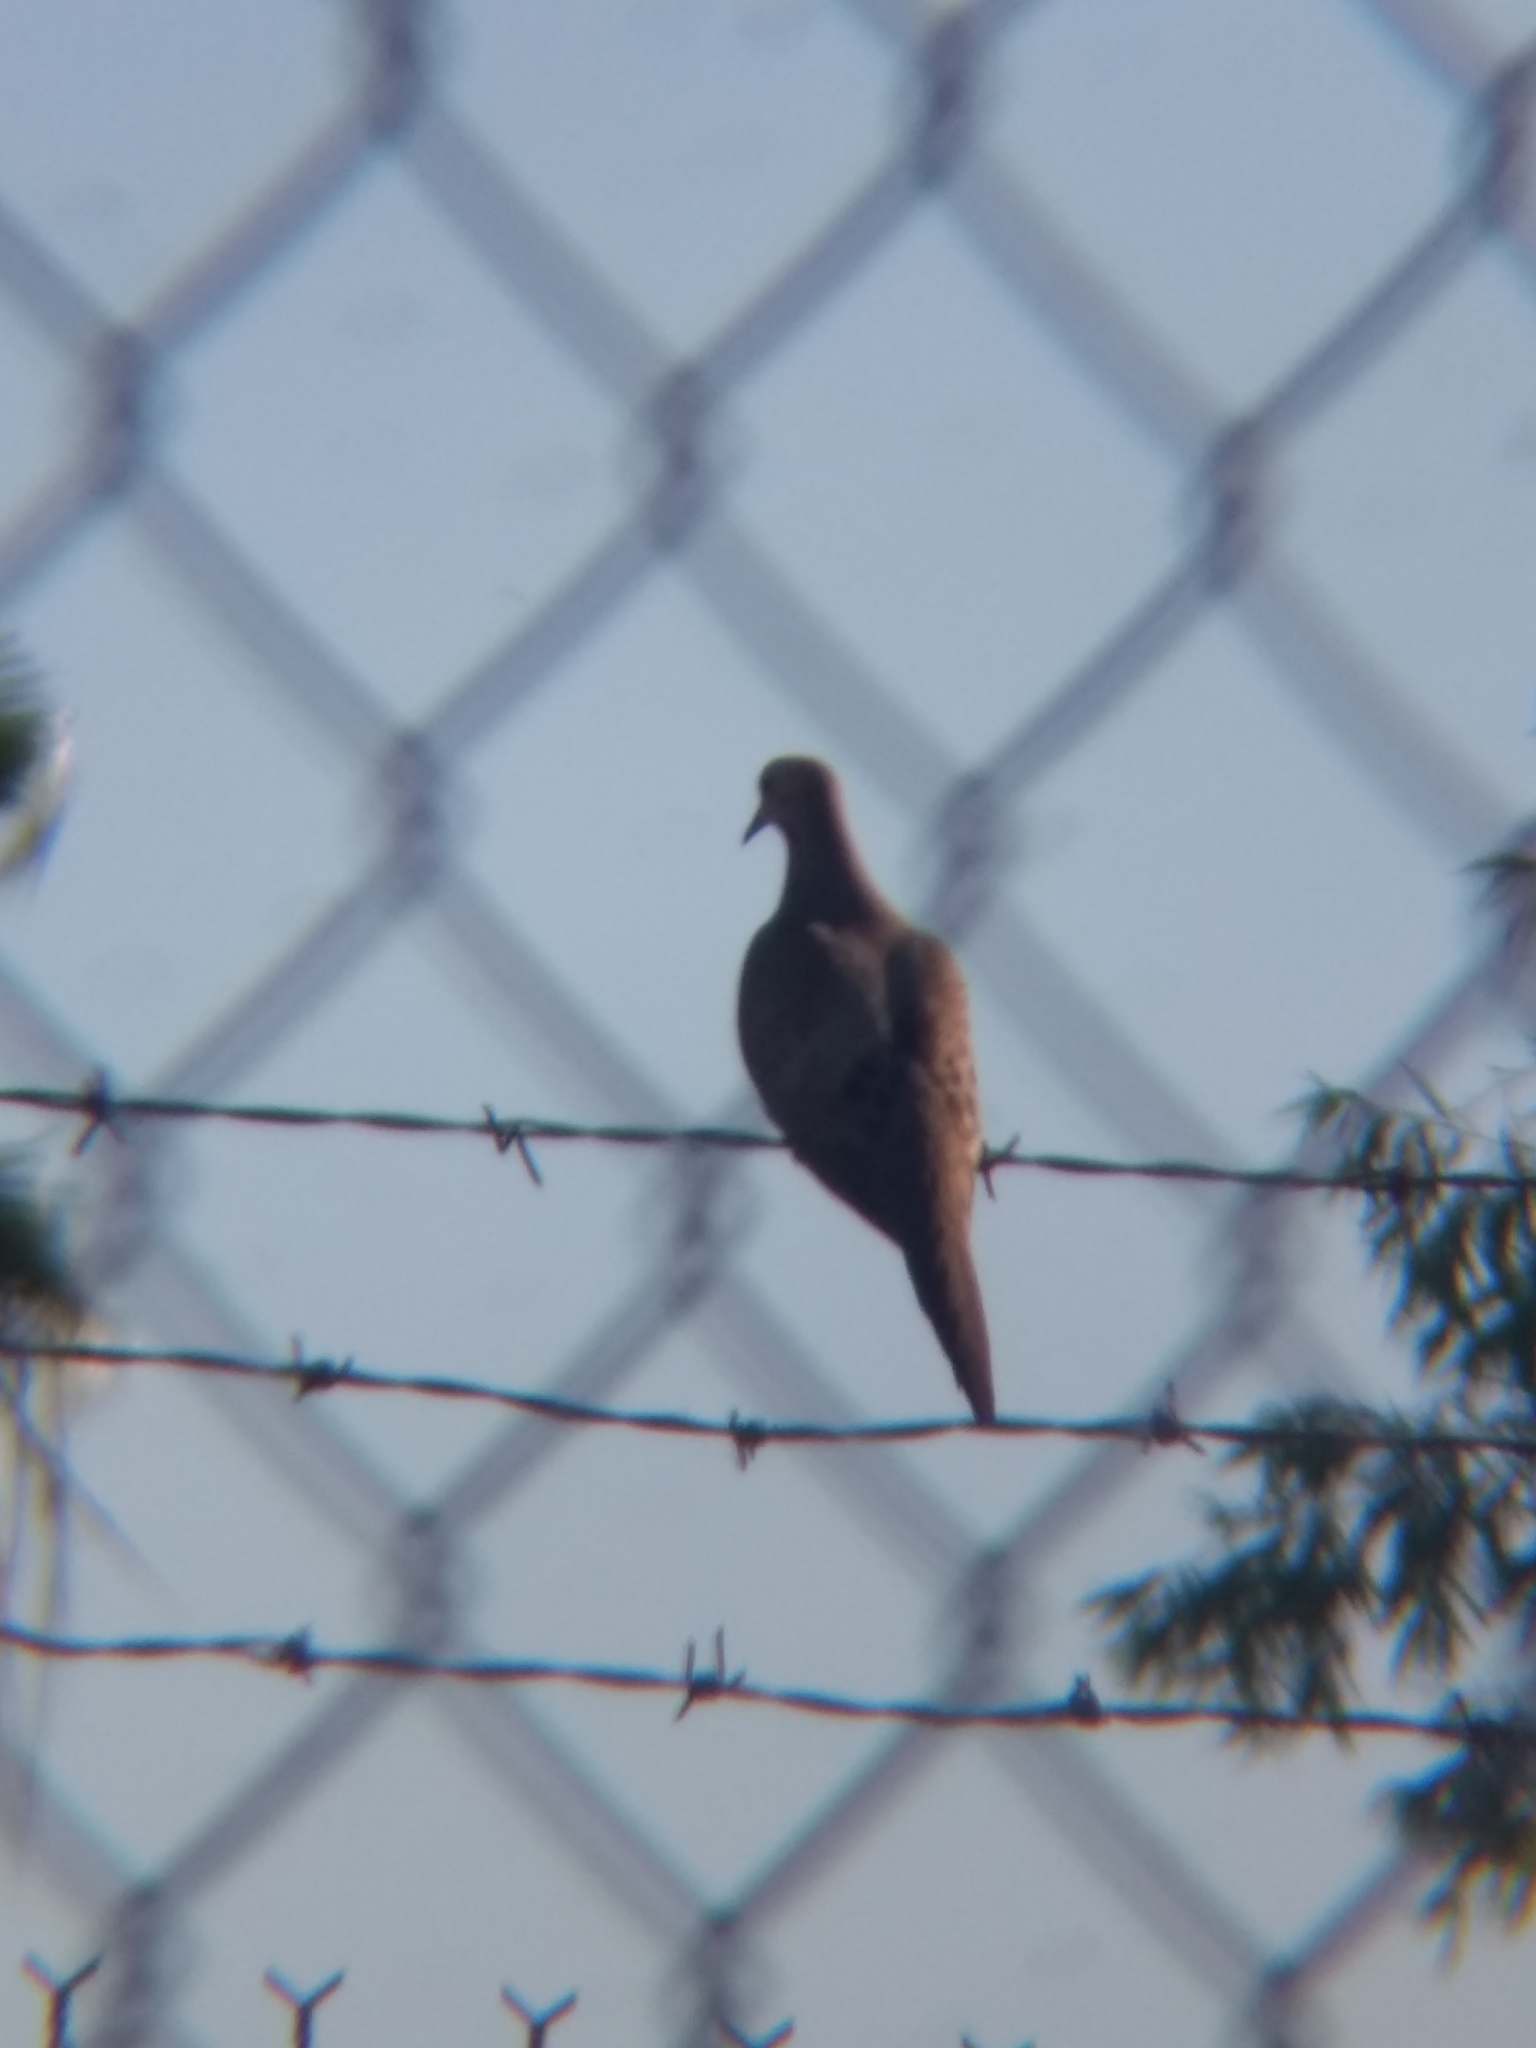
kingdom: Animalia
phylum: Chordata
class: Aves
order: Columbiformes
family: Columbidae
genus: Zenaida
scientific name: Zenaida macroura
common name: Mourning dove
